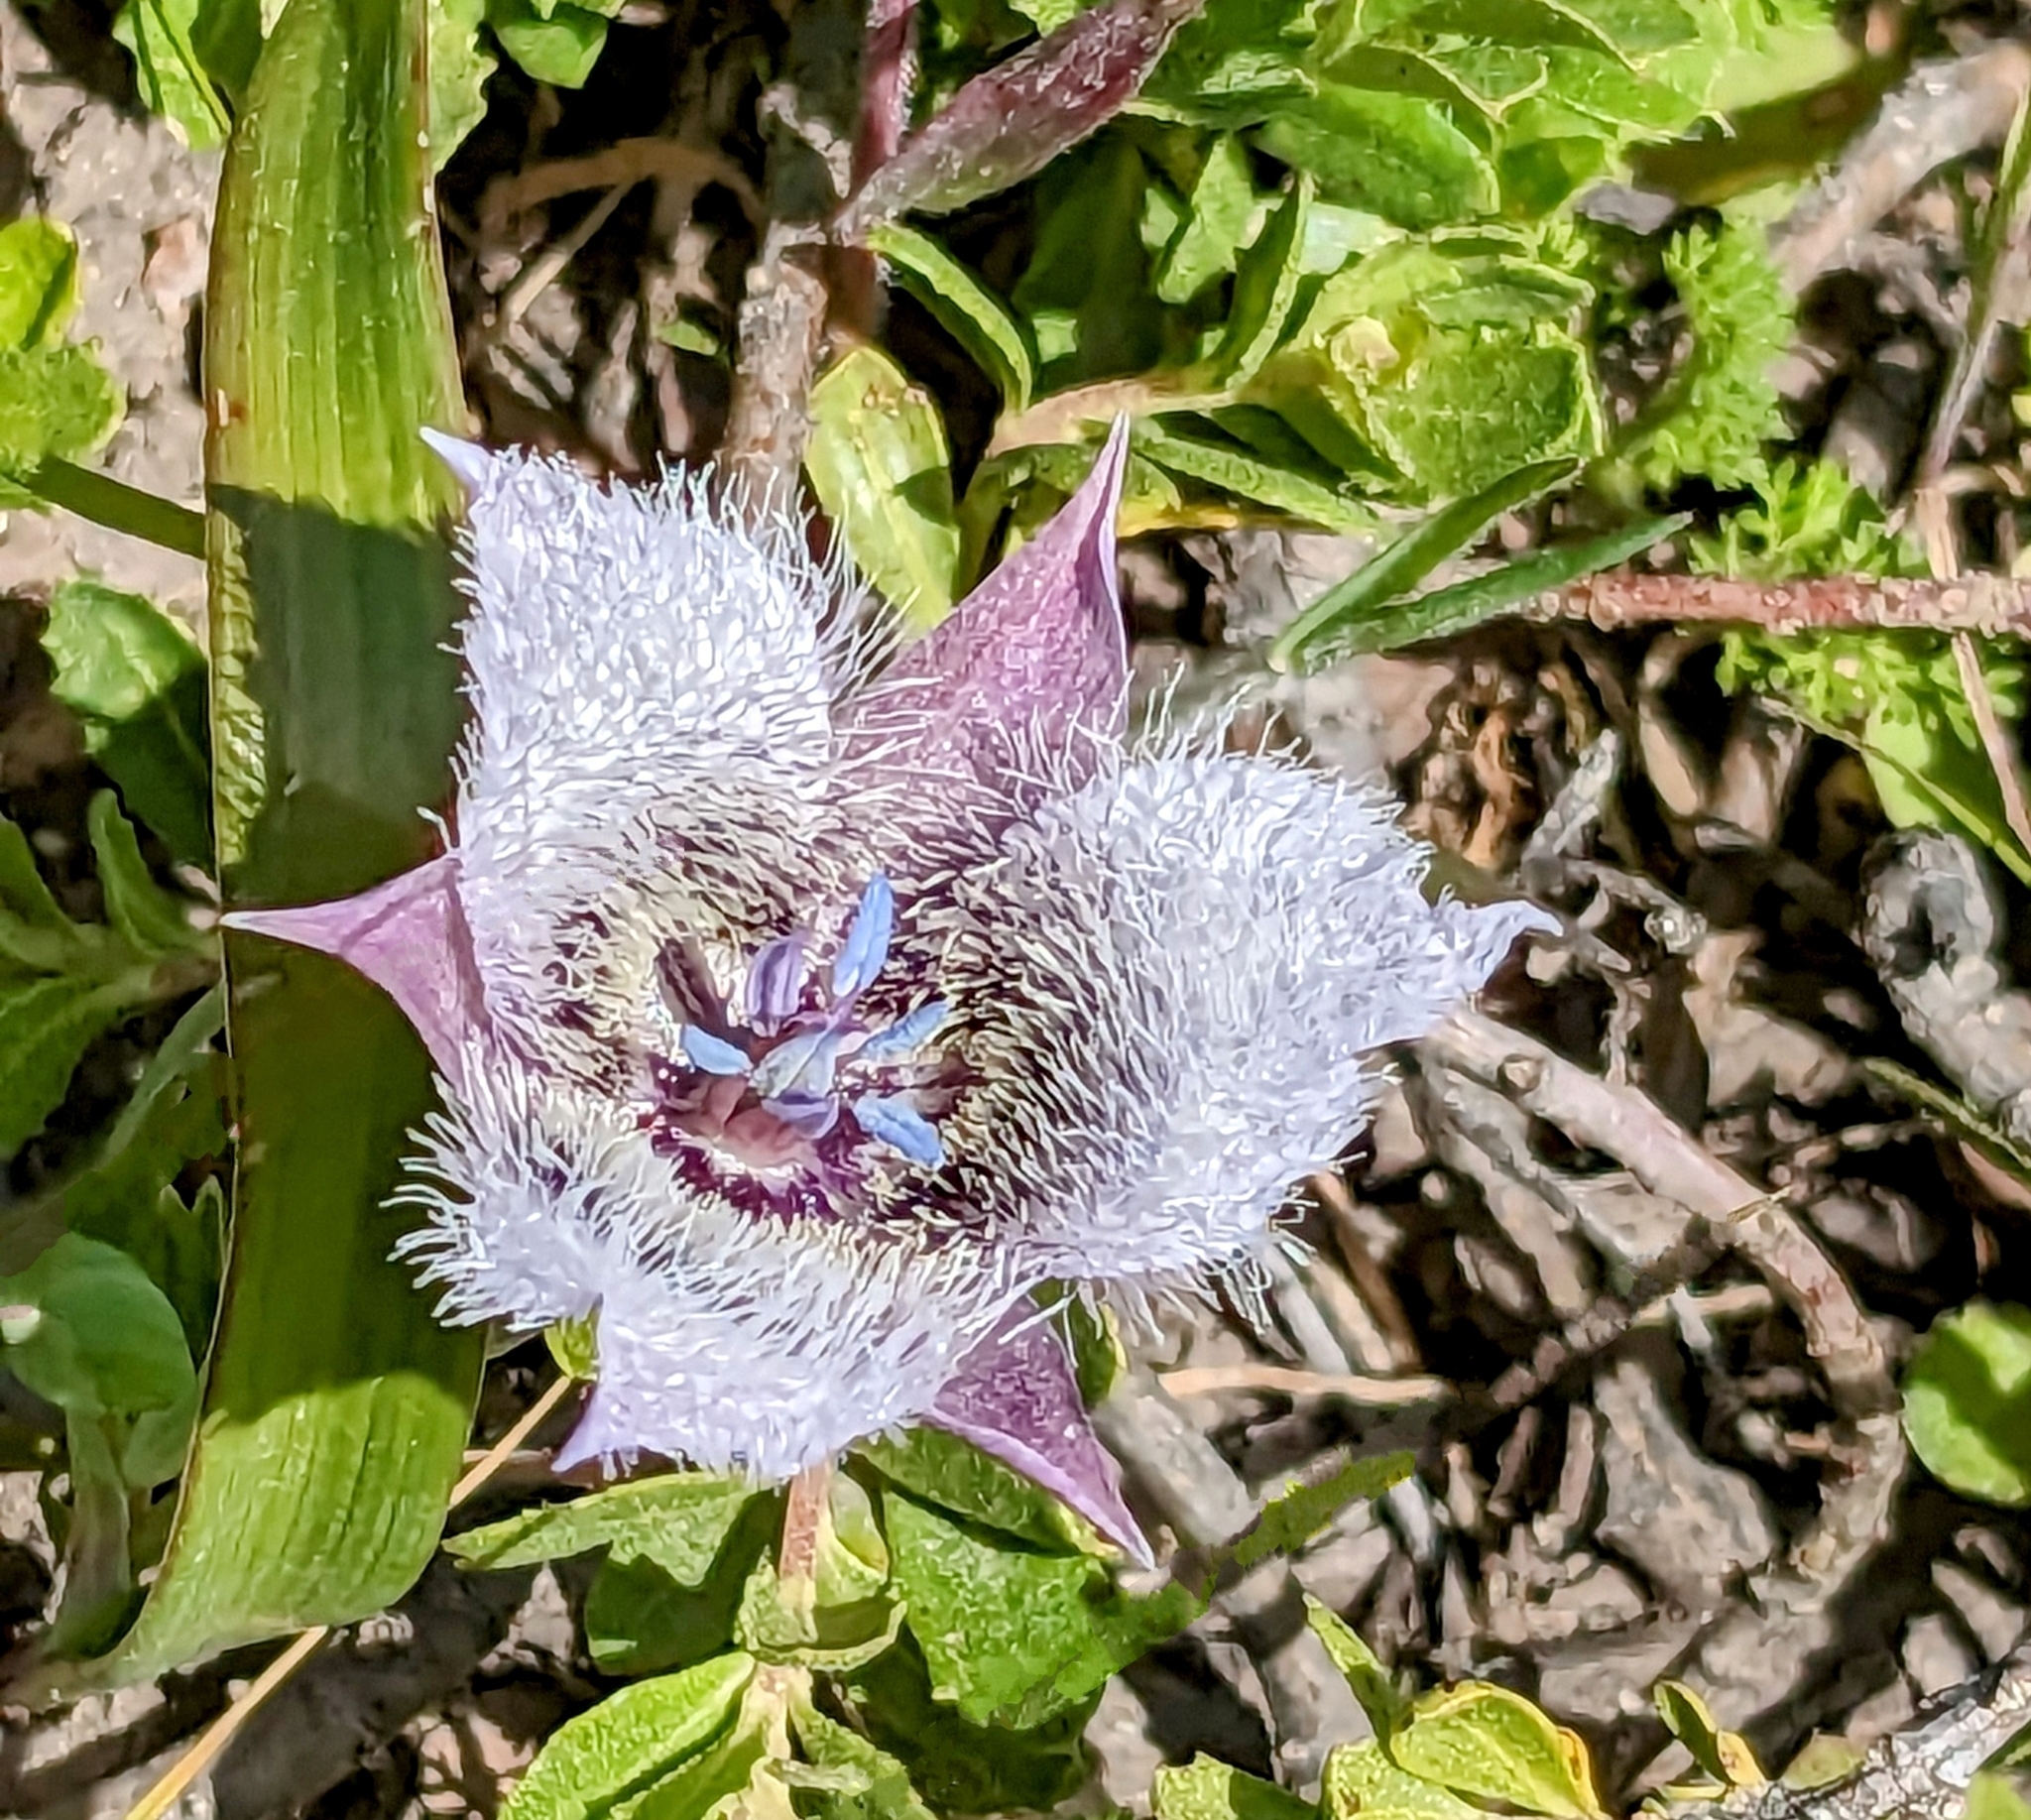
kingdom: Plantae
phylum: Tracheophyta
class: Liliopsida
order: Liliales
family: Liliaceae
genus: Calochortus
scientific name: Calochortus tolmiei
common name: Pussy-ears
